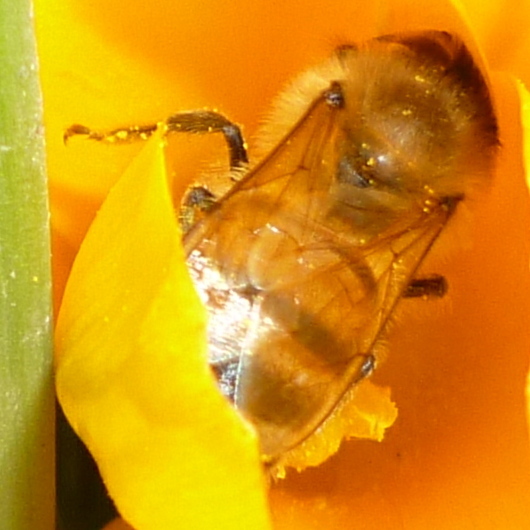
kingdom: Animalia
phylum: Arthropoda
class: Insecta
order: Hymenoptera
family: Apidae
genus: Apis
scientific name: Apis mellifera
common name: Honey bee
